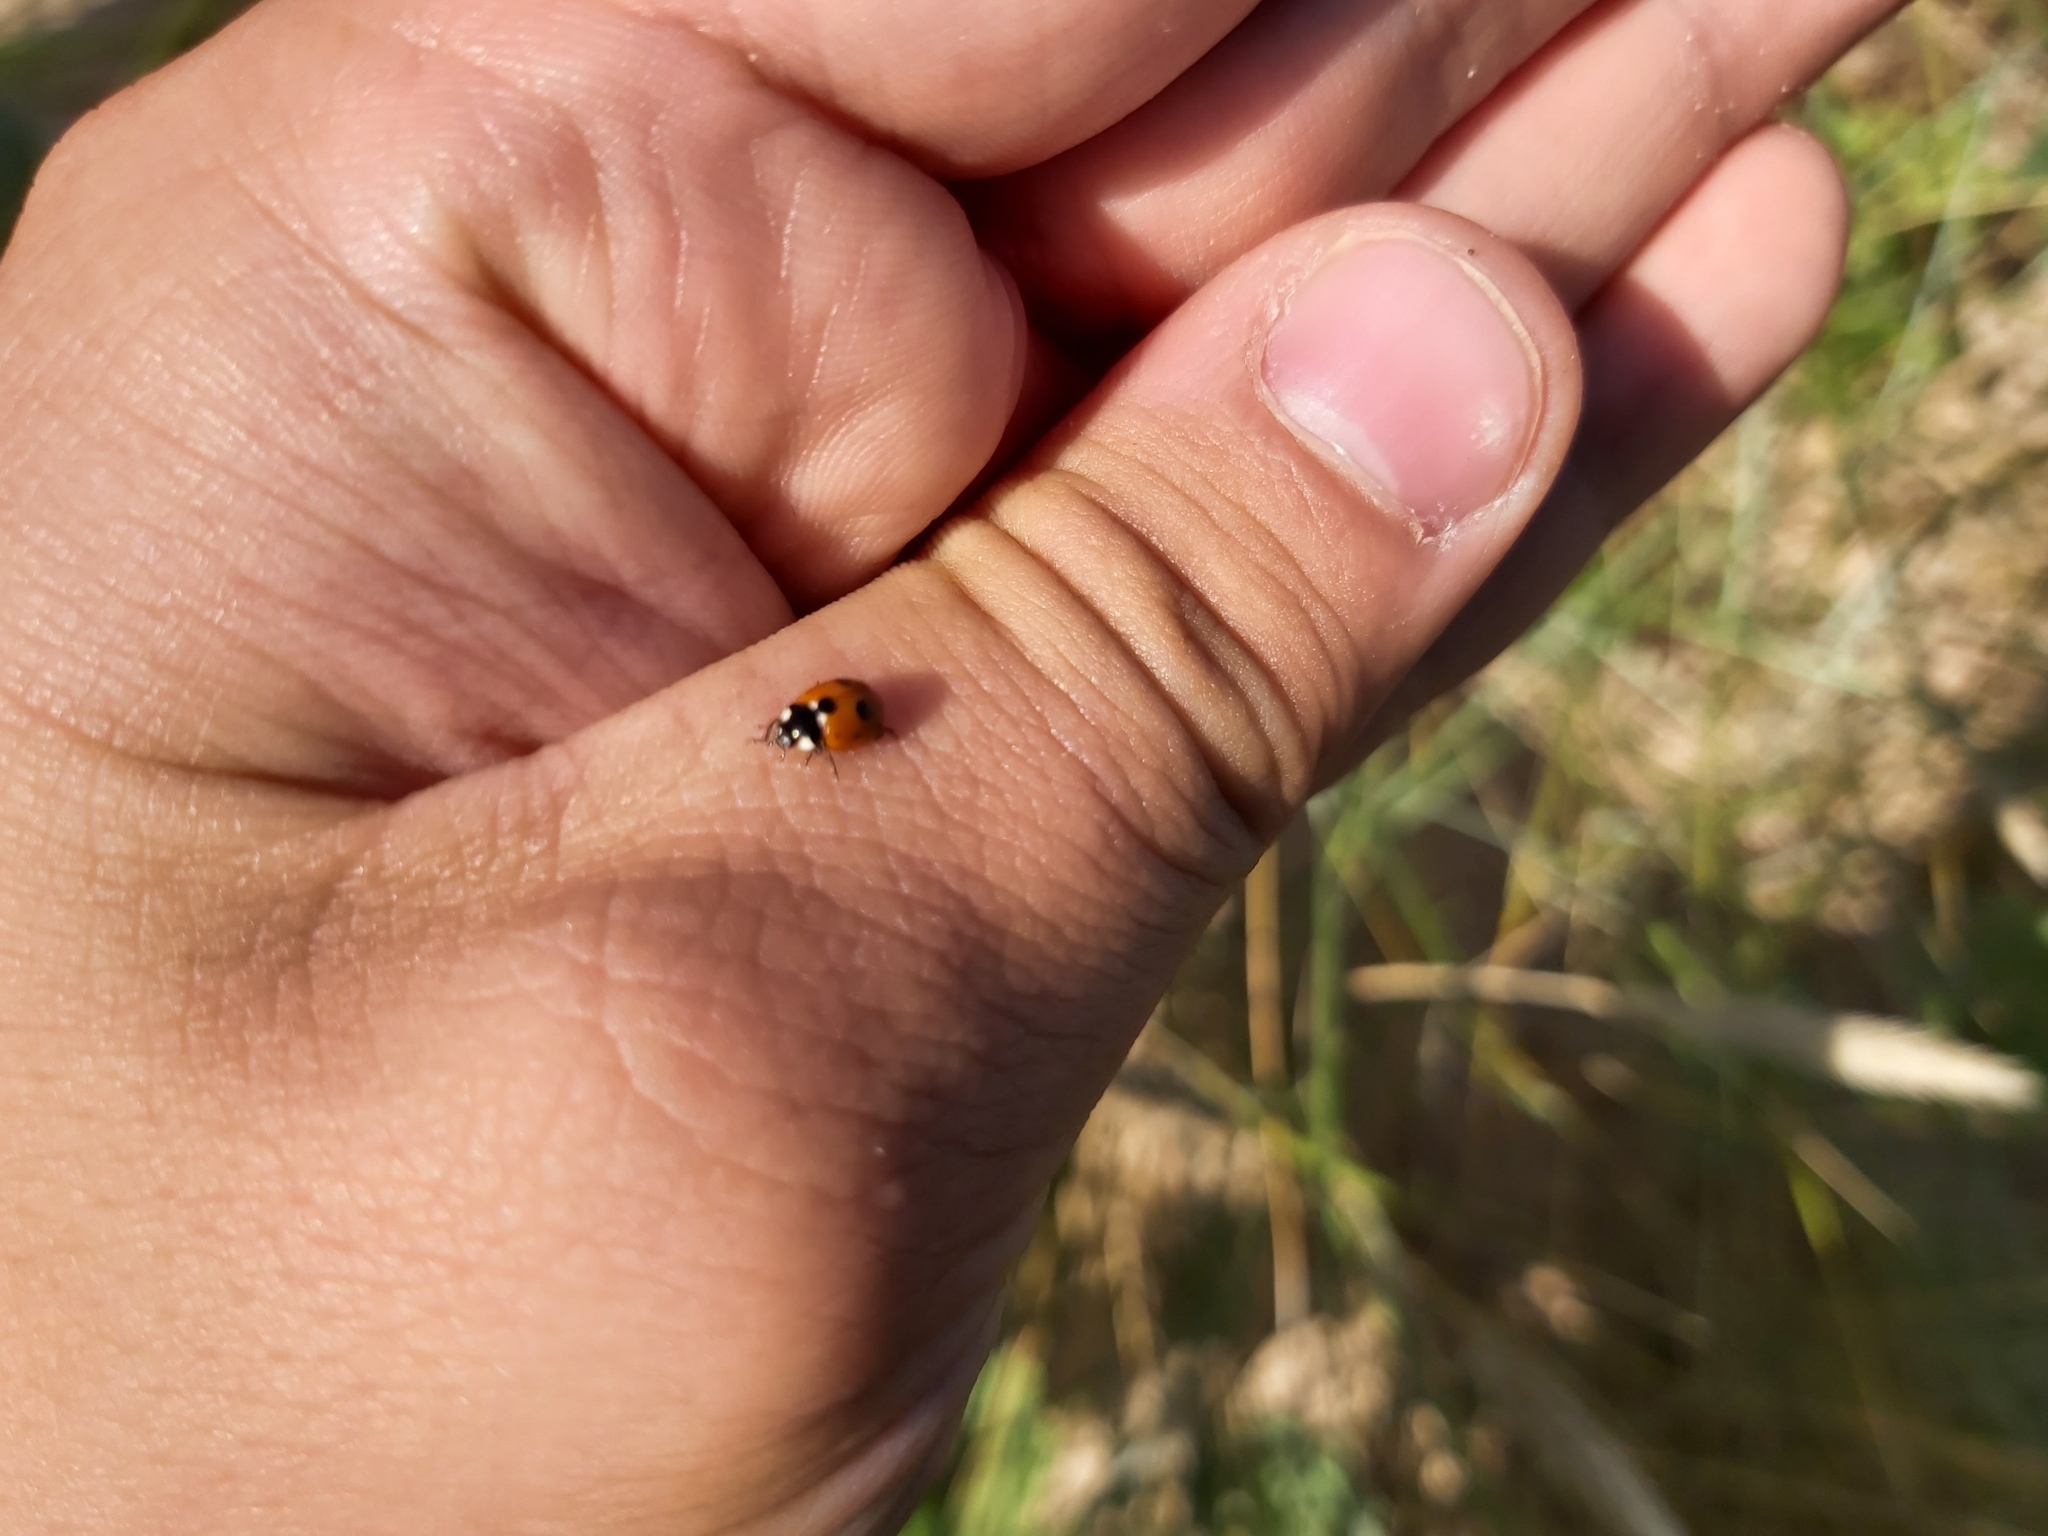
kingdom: Animalia
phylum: Arthropoda
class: Insecta
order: Coleoptera
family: Coccinellidae
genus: Coccinella
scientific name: Coccinella quinquepunctata
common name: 5-spot ladybird
